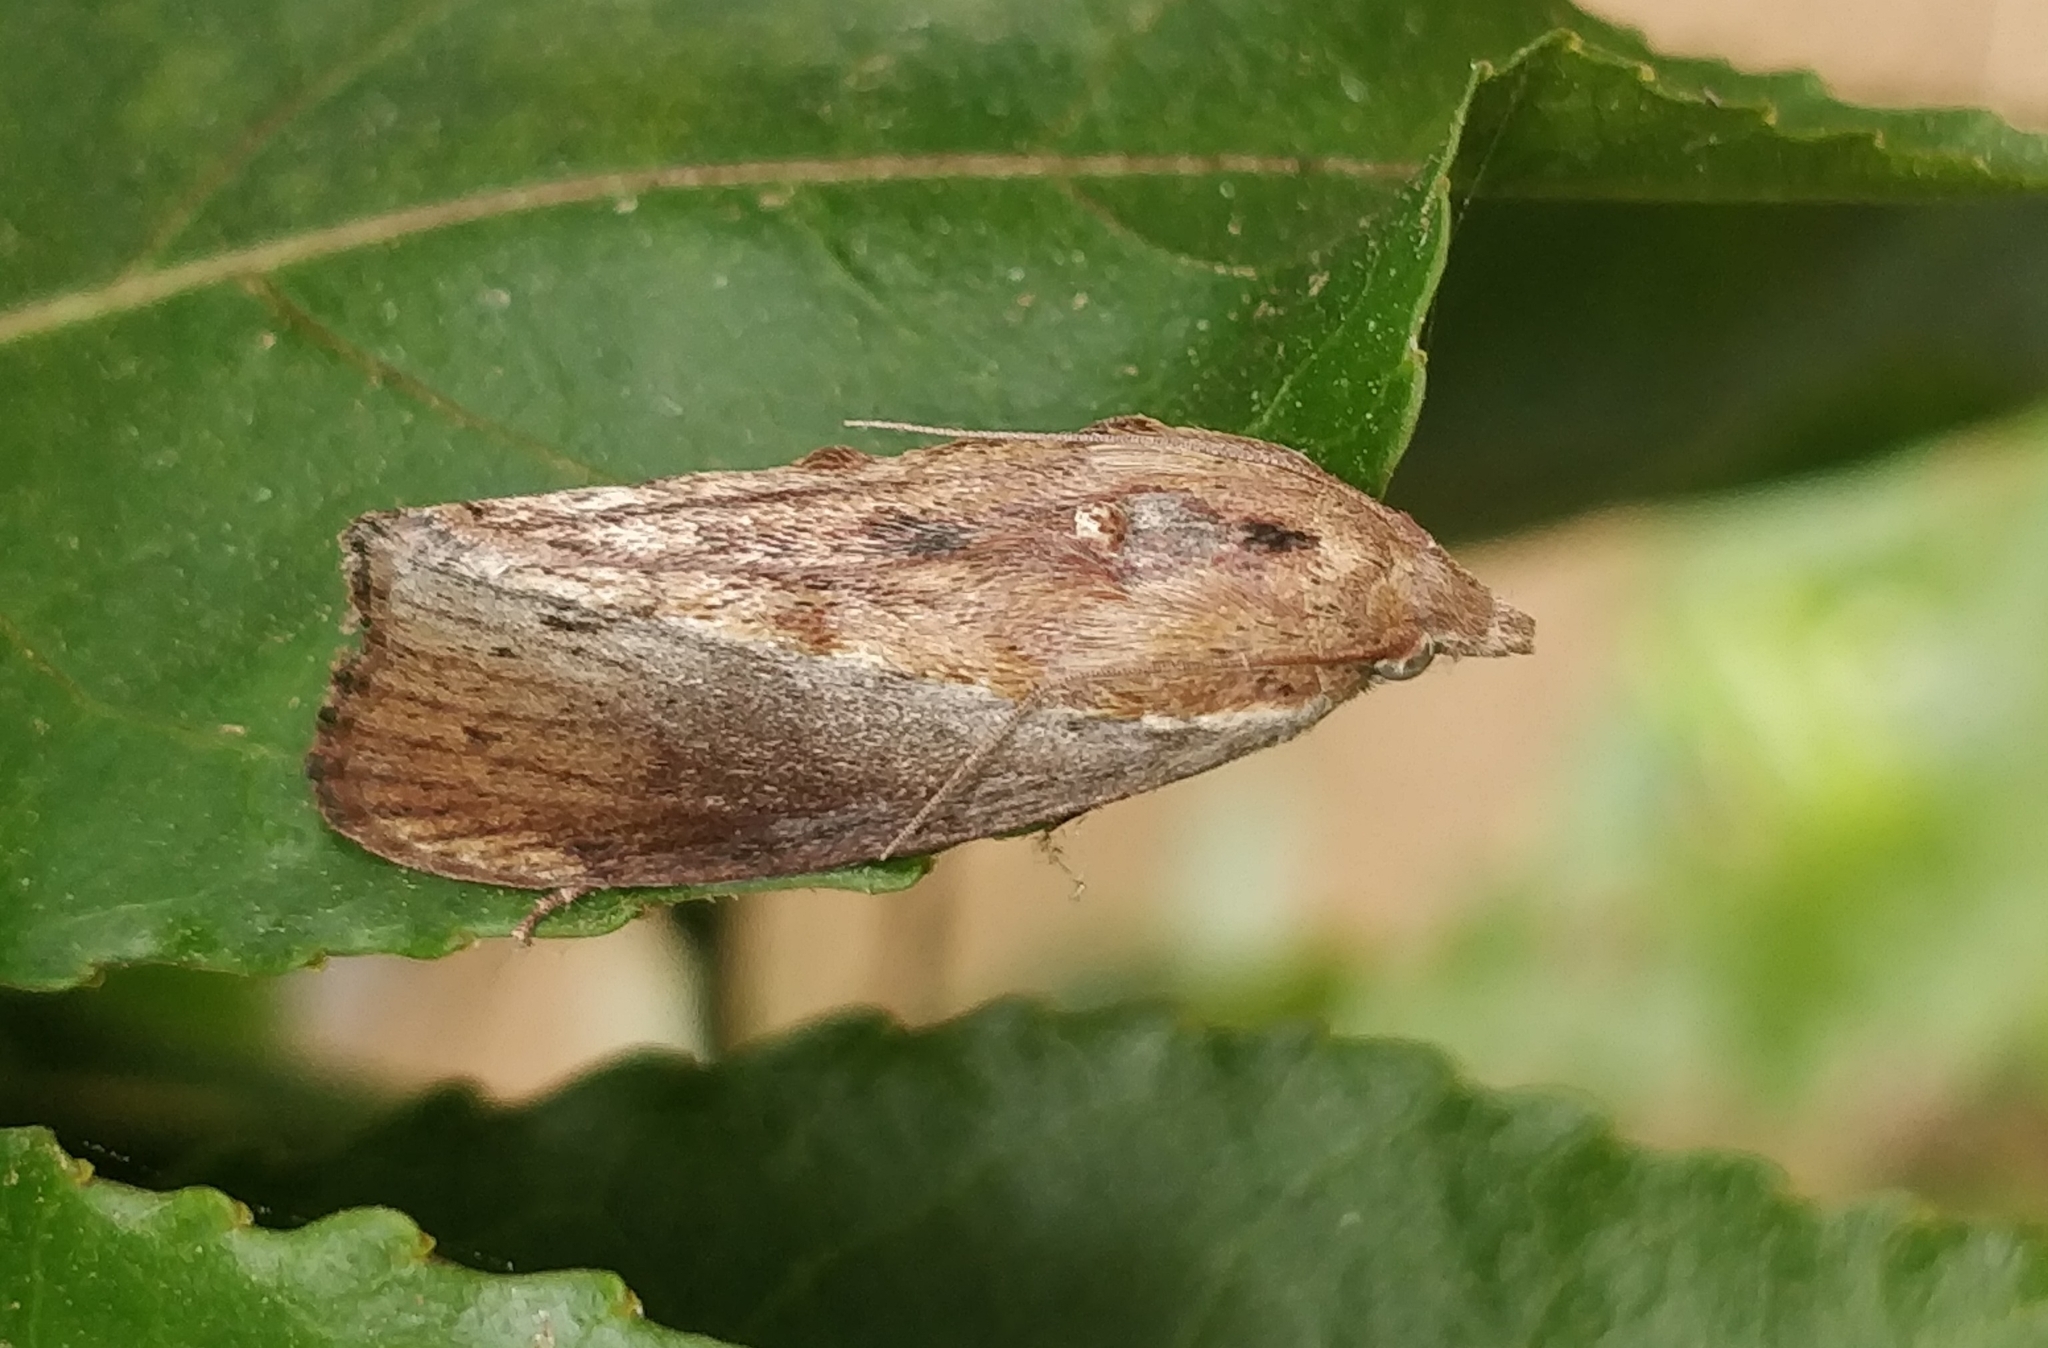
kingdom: Animalia
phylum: Arthropoda
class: Insecta
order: Lepidoptera
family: Pyralidae
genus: Galleria
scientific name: Galleria mellonella
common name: Greater wax moth
